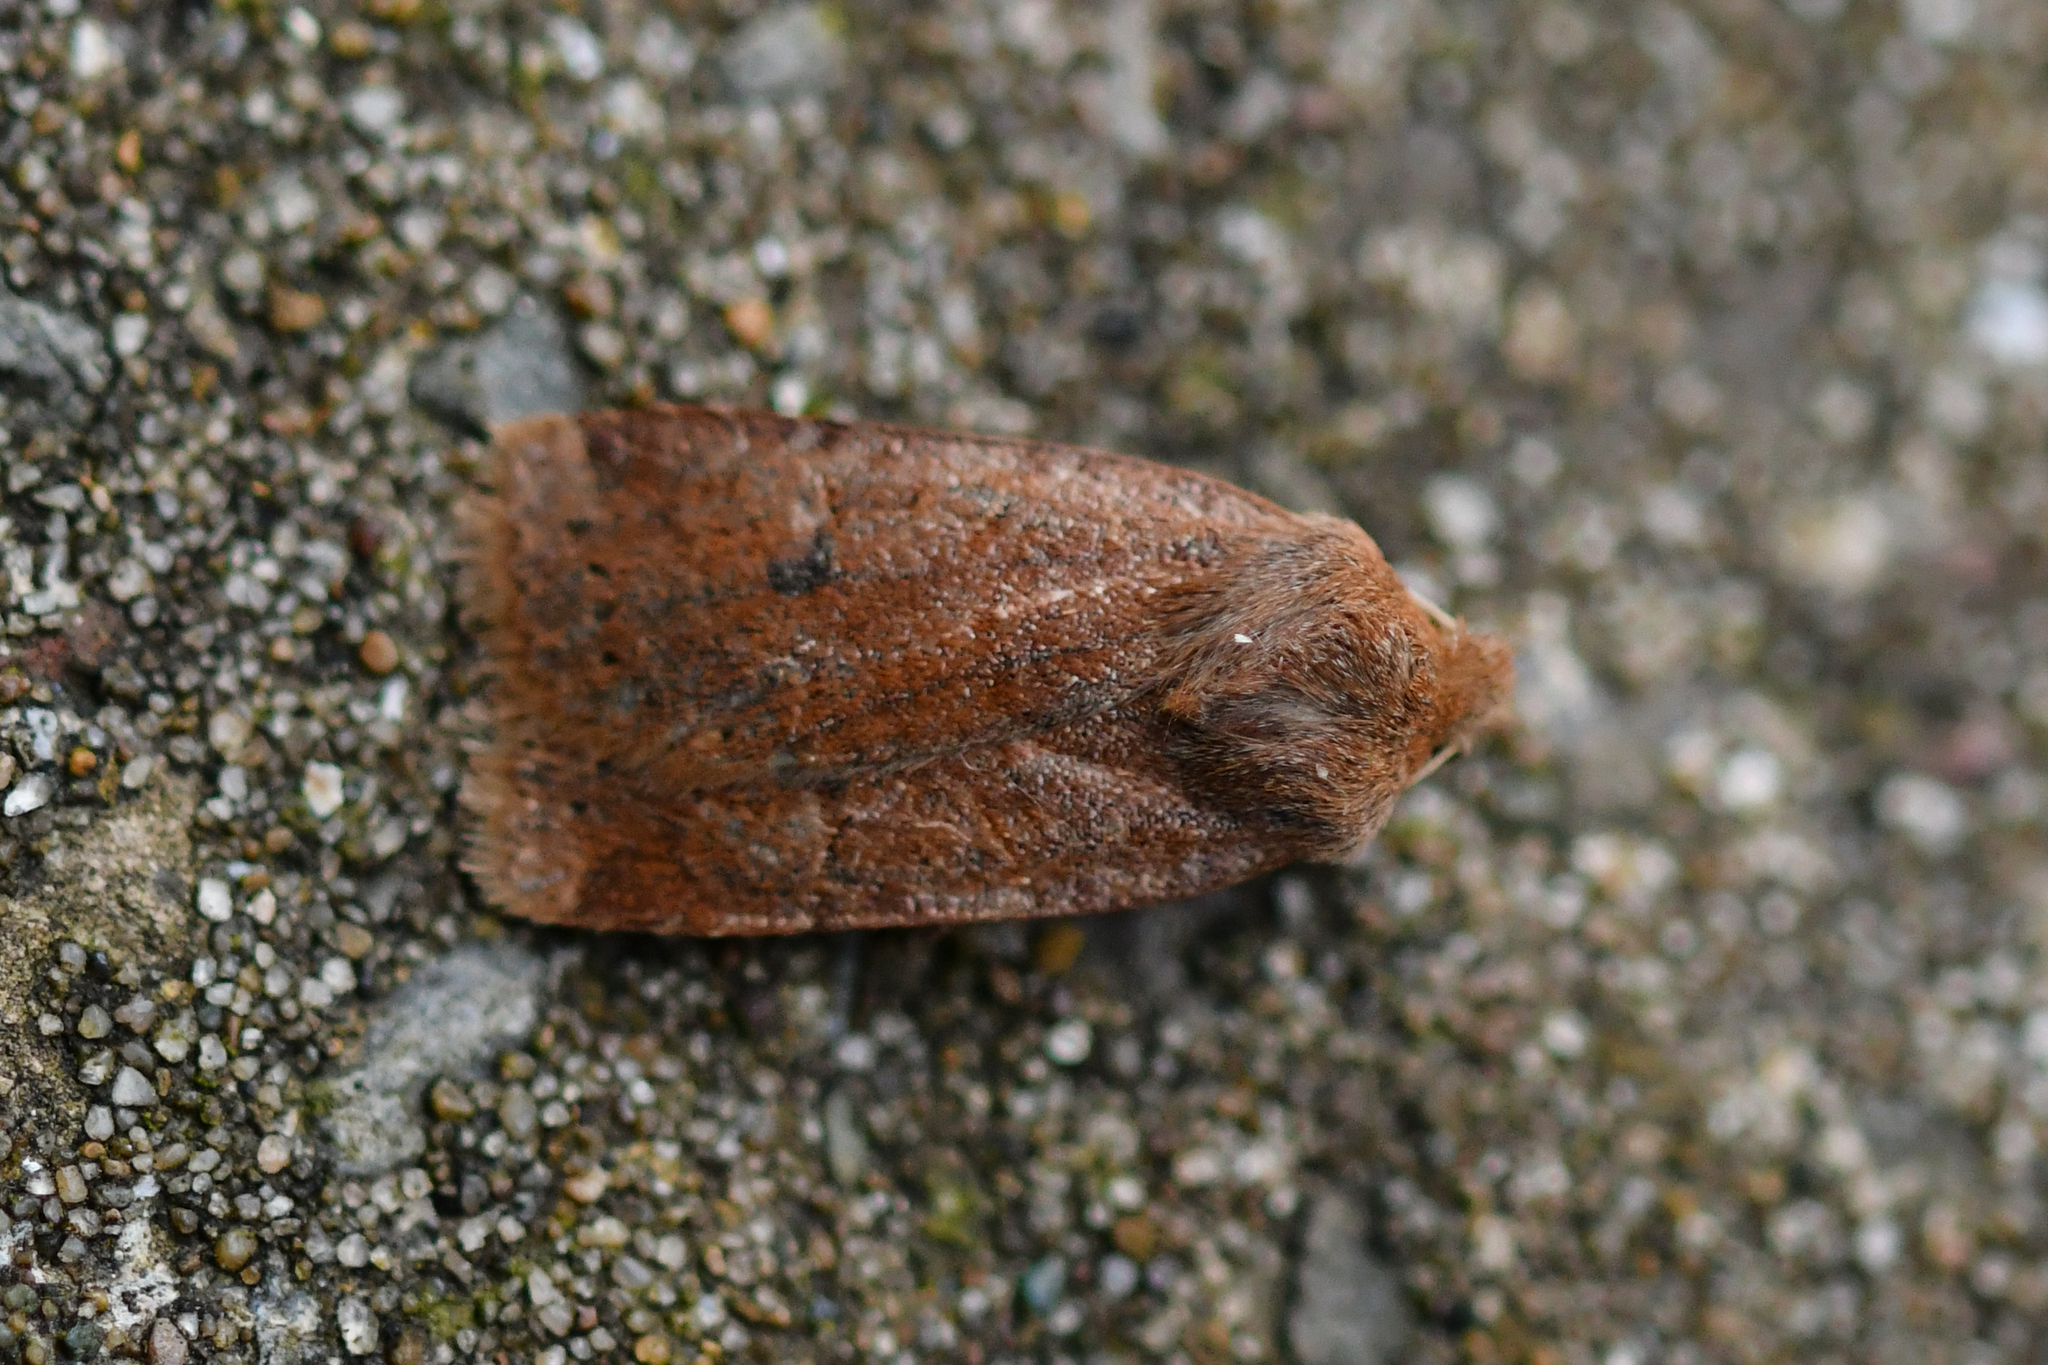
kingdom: Animalia
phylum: Arthropoda
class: Insecta
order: Lepidoptera
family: Noctuidae
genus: Conistra
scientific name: Conistra vaccinii
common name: Chestnut
